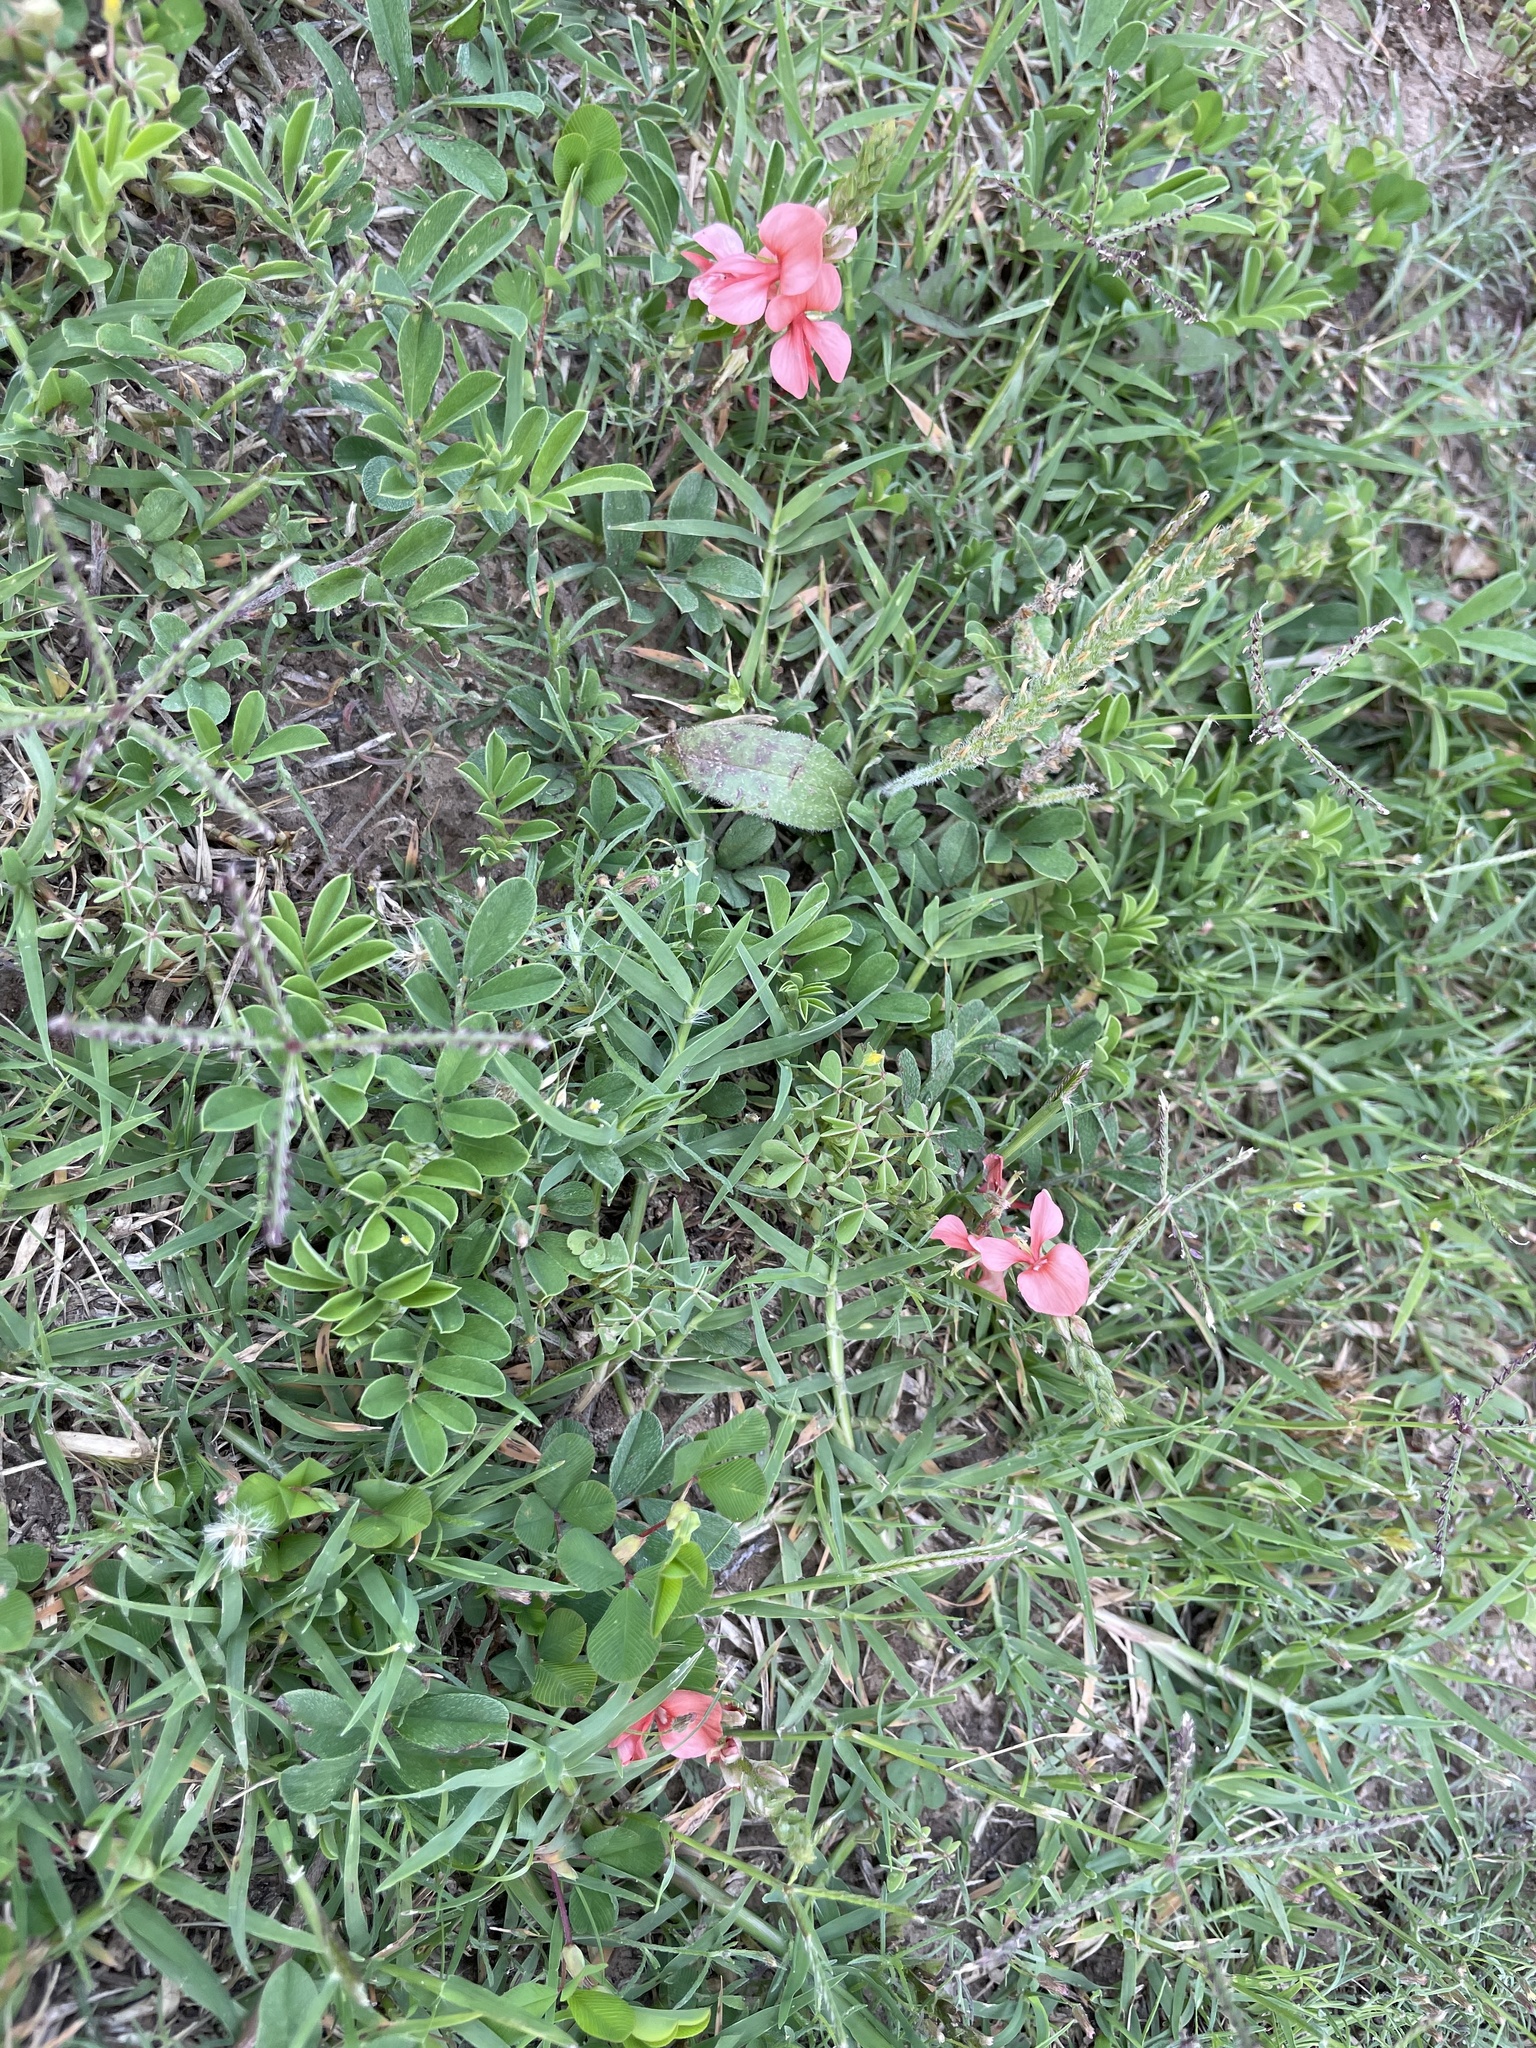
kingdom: Plantae
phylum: Tracheophyta
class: Magnoliopsida
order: Fabales
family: Fabaceae
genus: Indigofera
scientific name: Indigofera miniata
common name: Coast indigo
